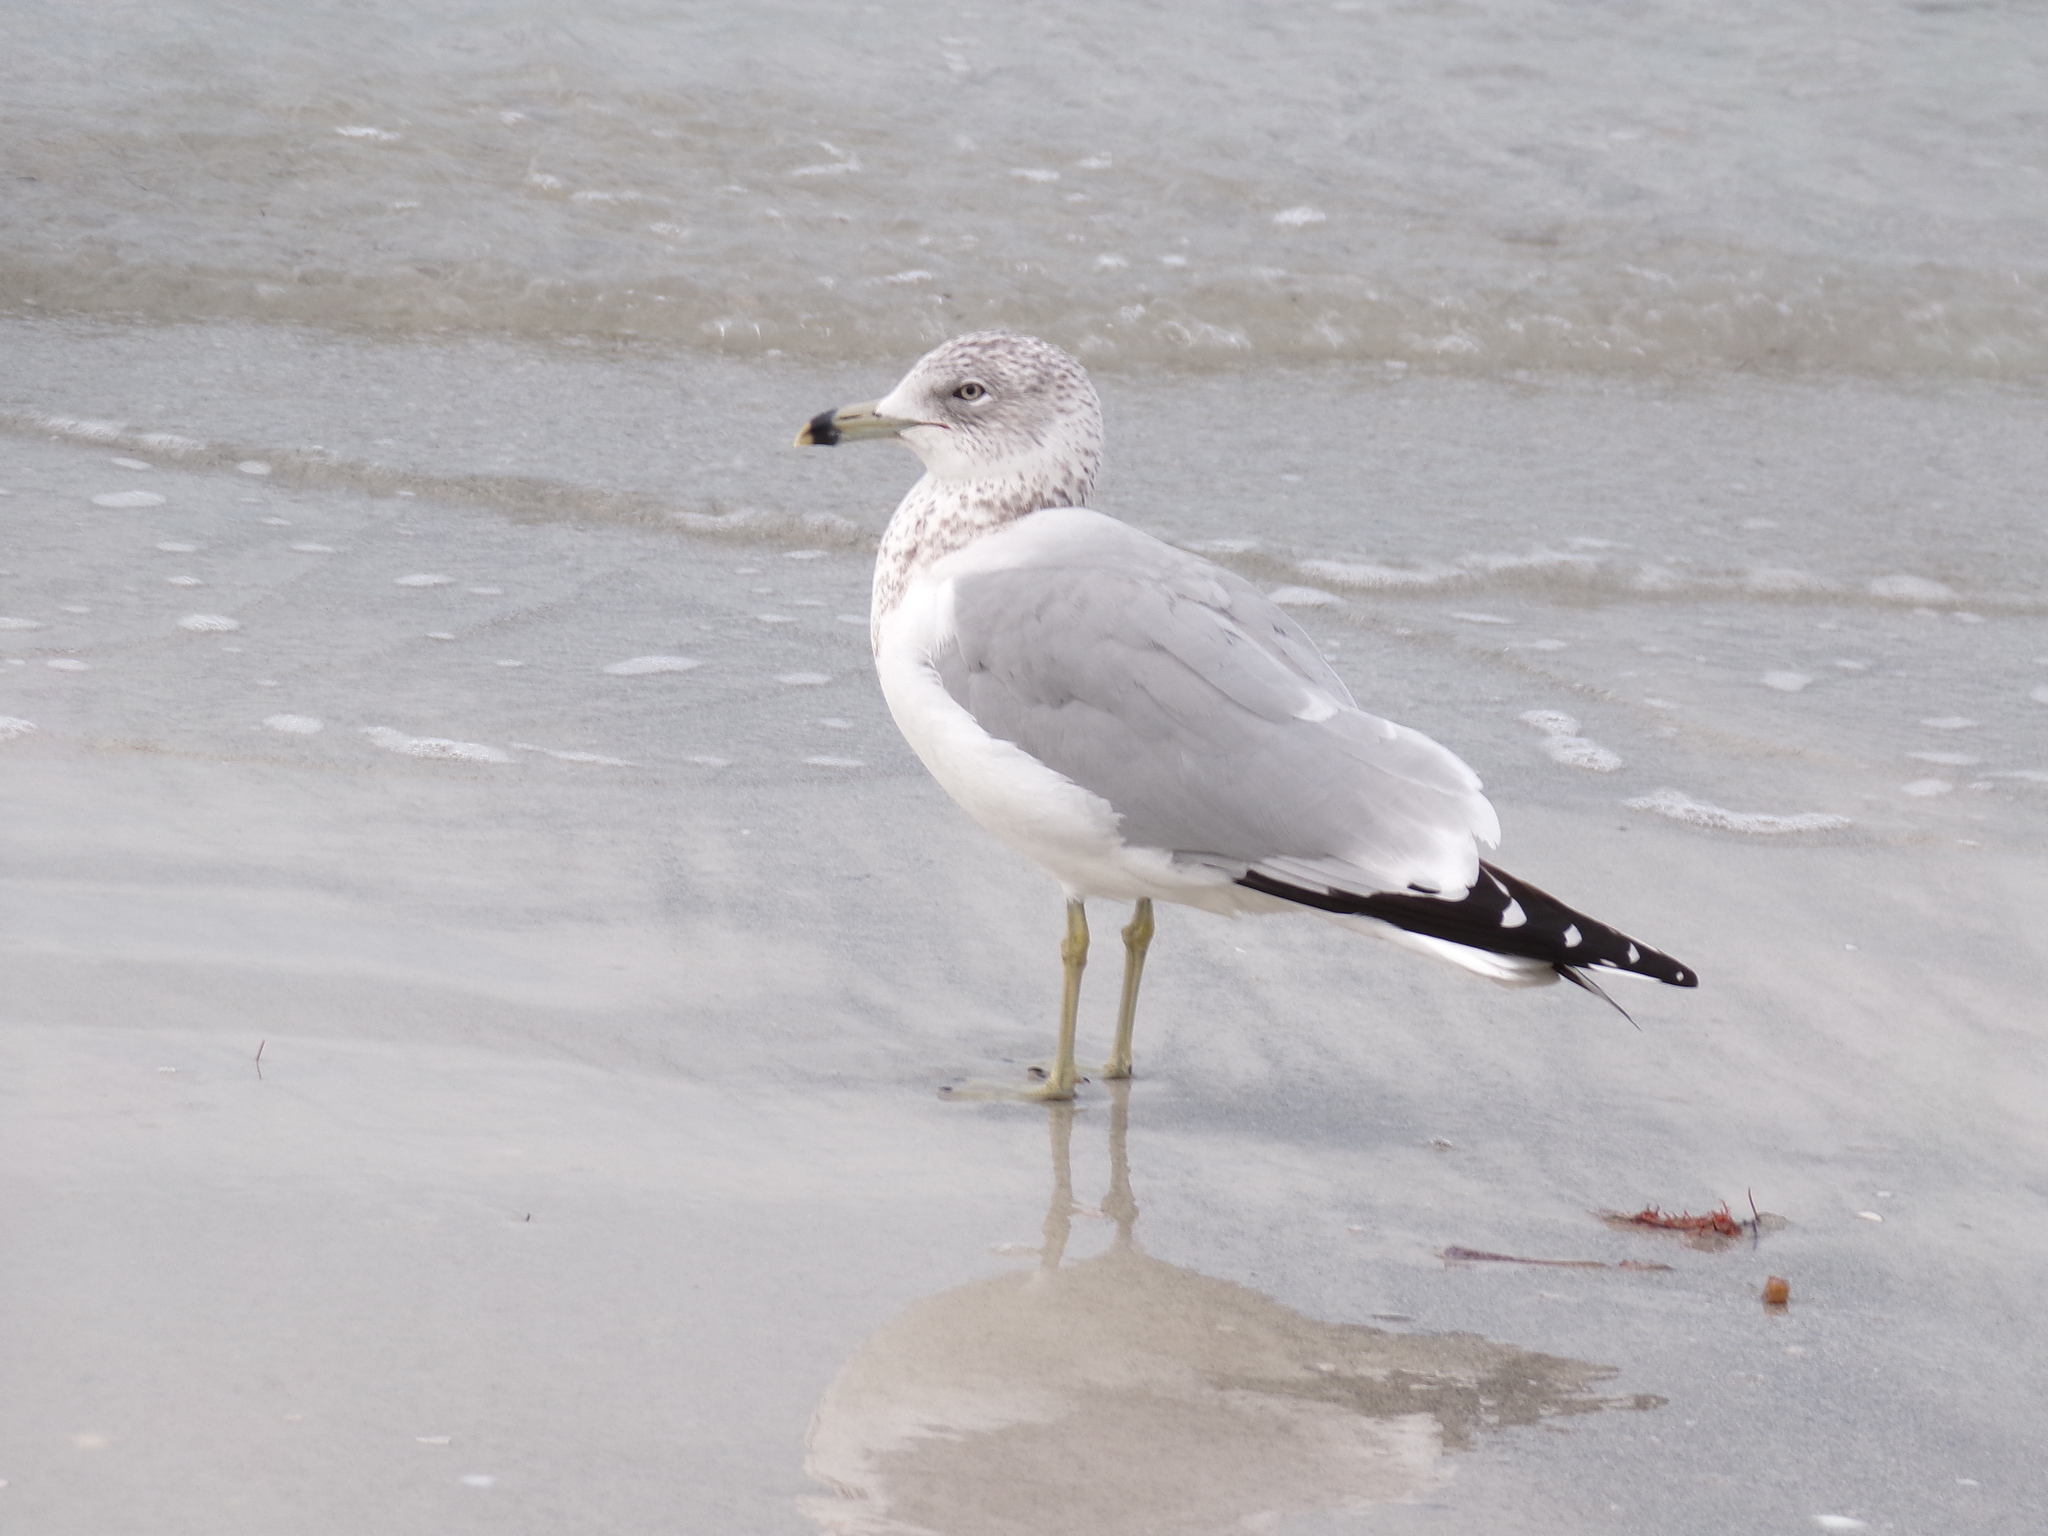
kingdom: Animalia
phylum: Chordata
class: Aves
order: Charadriiformes
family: Laridae
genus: Larus
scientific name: Larus delawarensis
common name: Ring-billed gull
